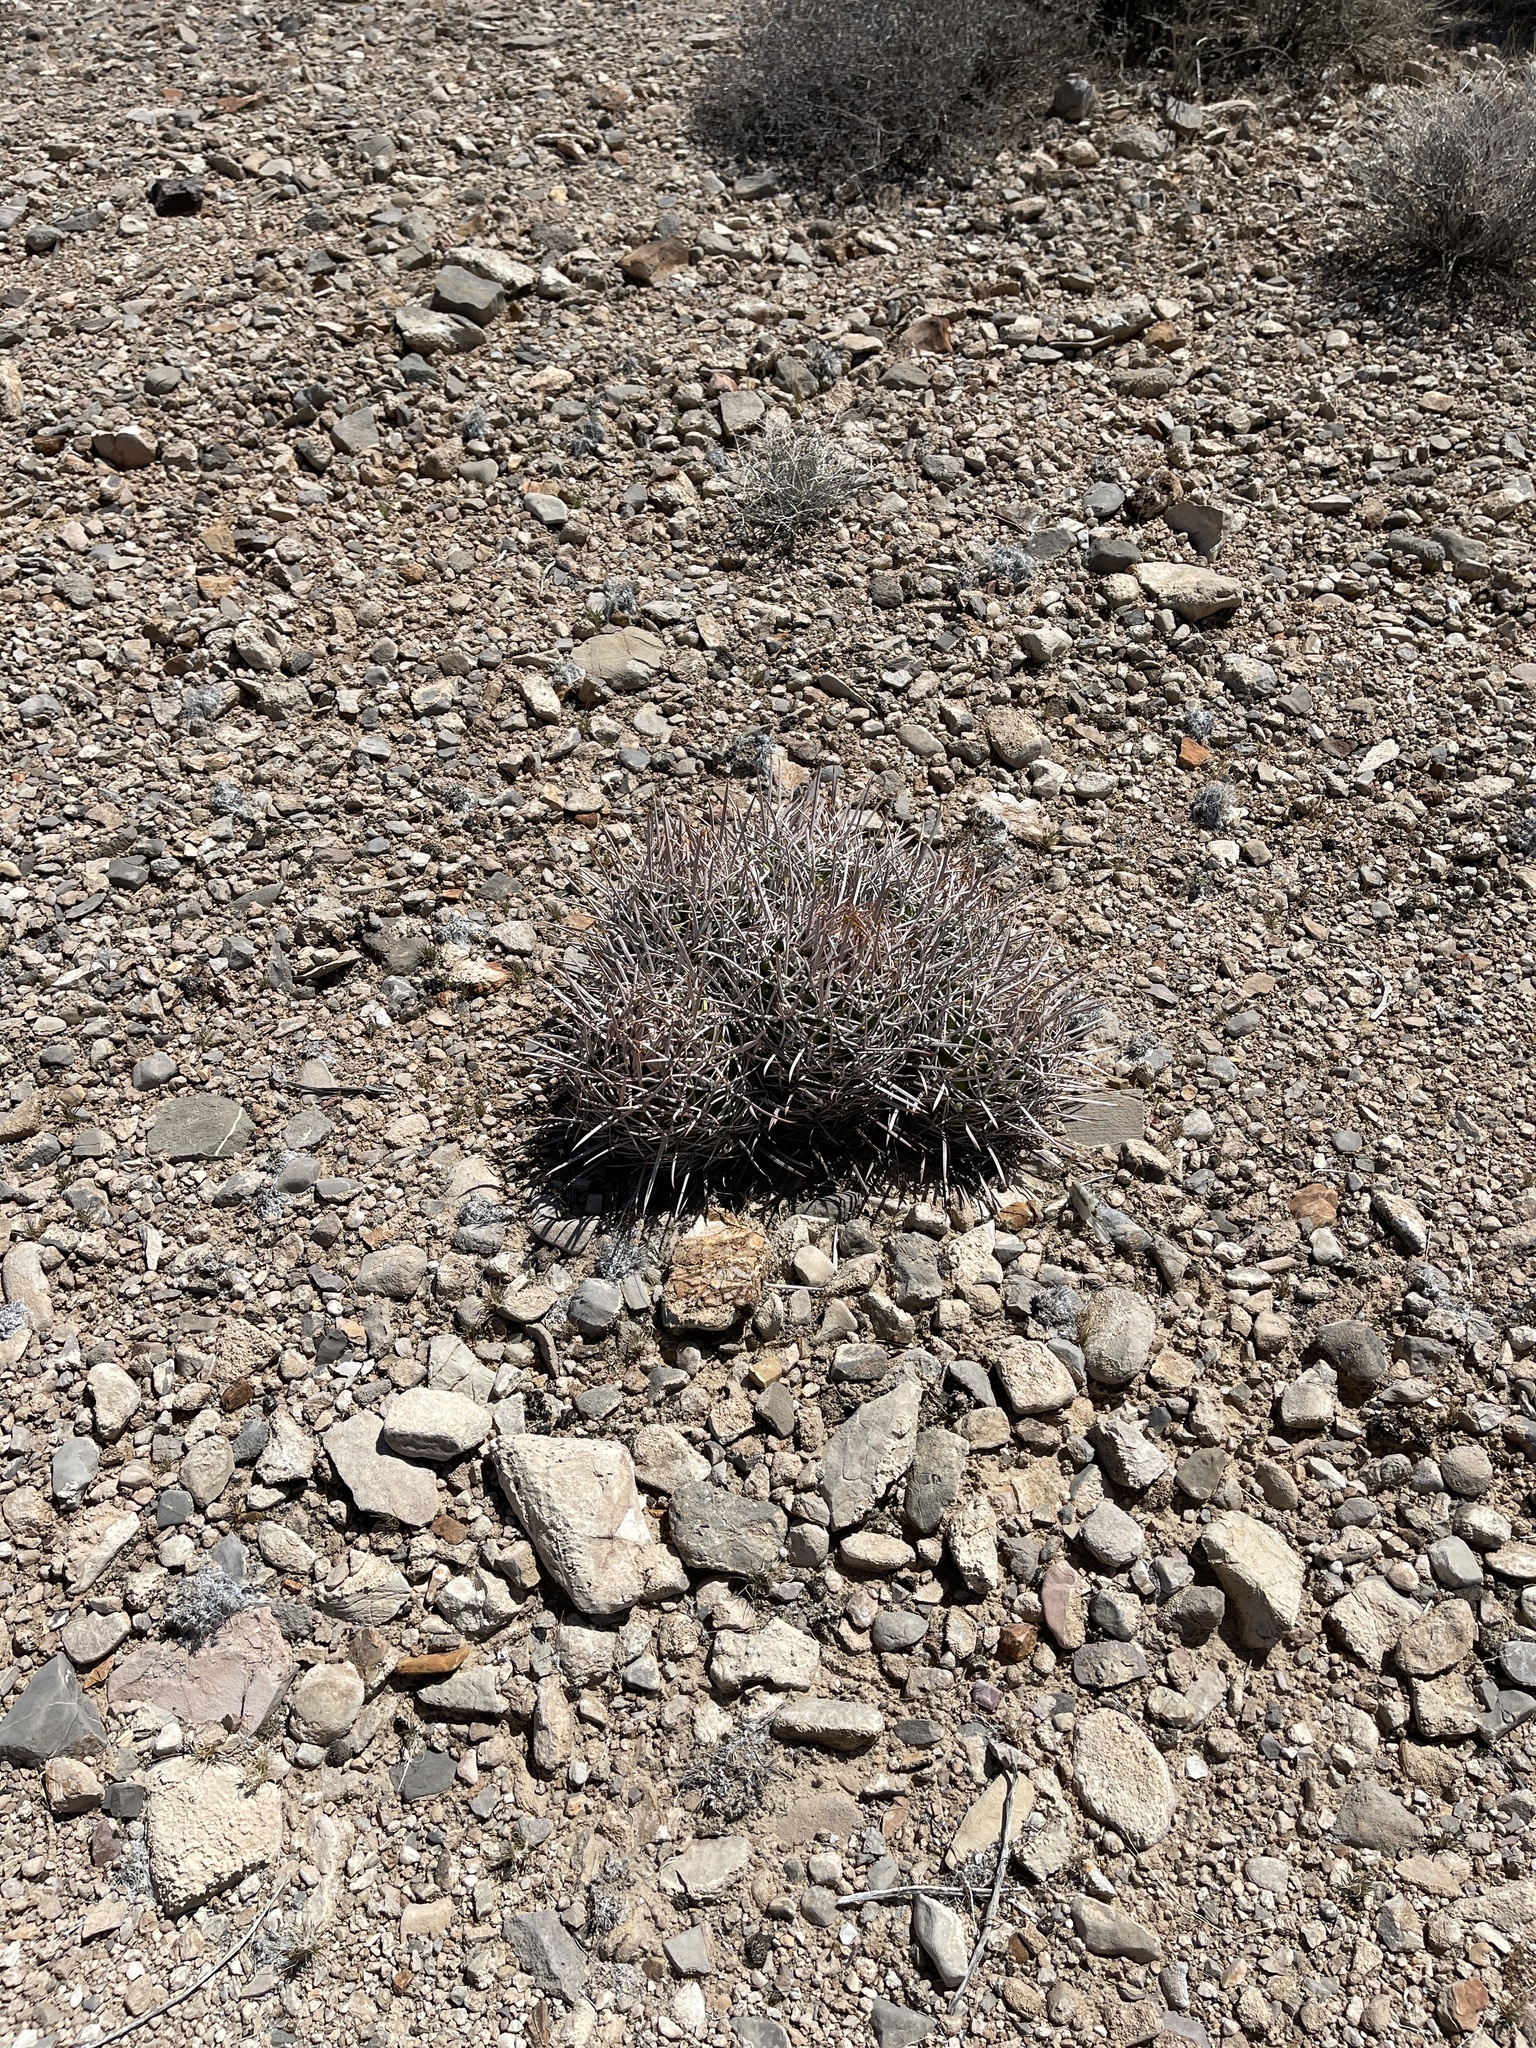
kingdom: Plantae
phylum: Tracheophyta
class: Magnoliopsida
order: Caryophyllales
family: Cactaceae
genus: Echinocactus
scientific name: Echinocactus polycephalus
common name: Cottontop cactus
